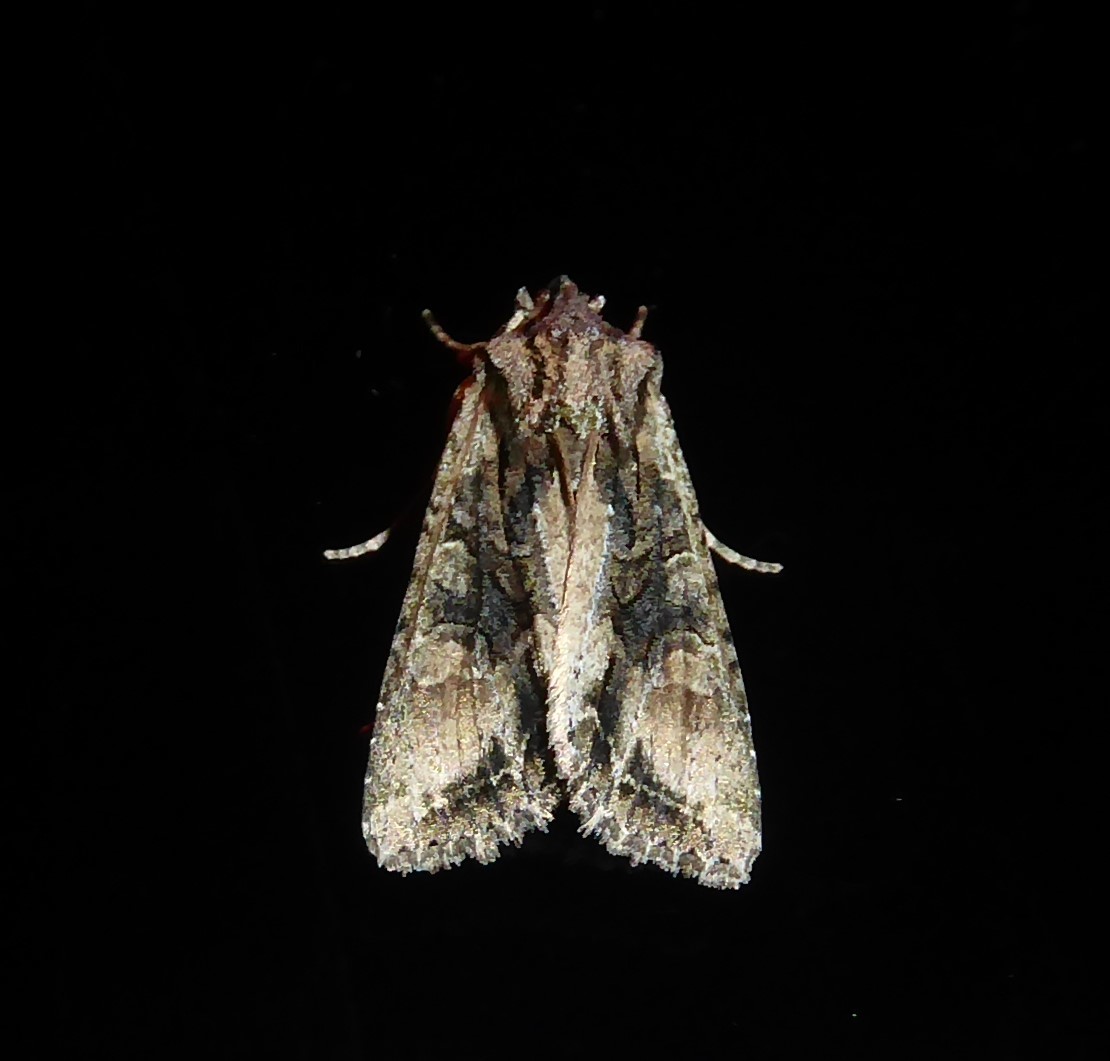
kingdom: Animalia
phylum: Arthropoda
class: Insecta
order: Lepidoptera
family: Noctuidae
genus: Ichneutica
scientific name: Ichneutica mutans
